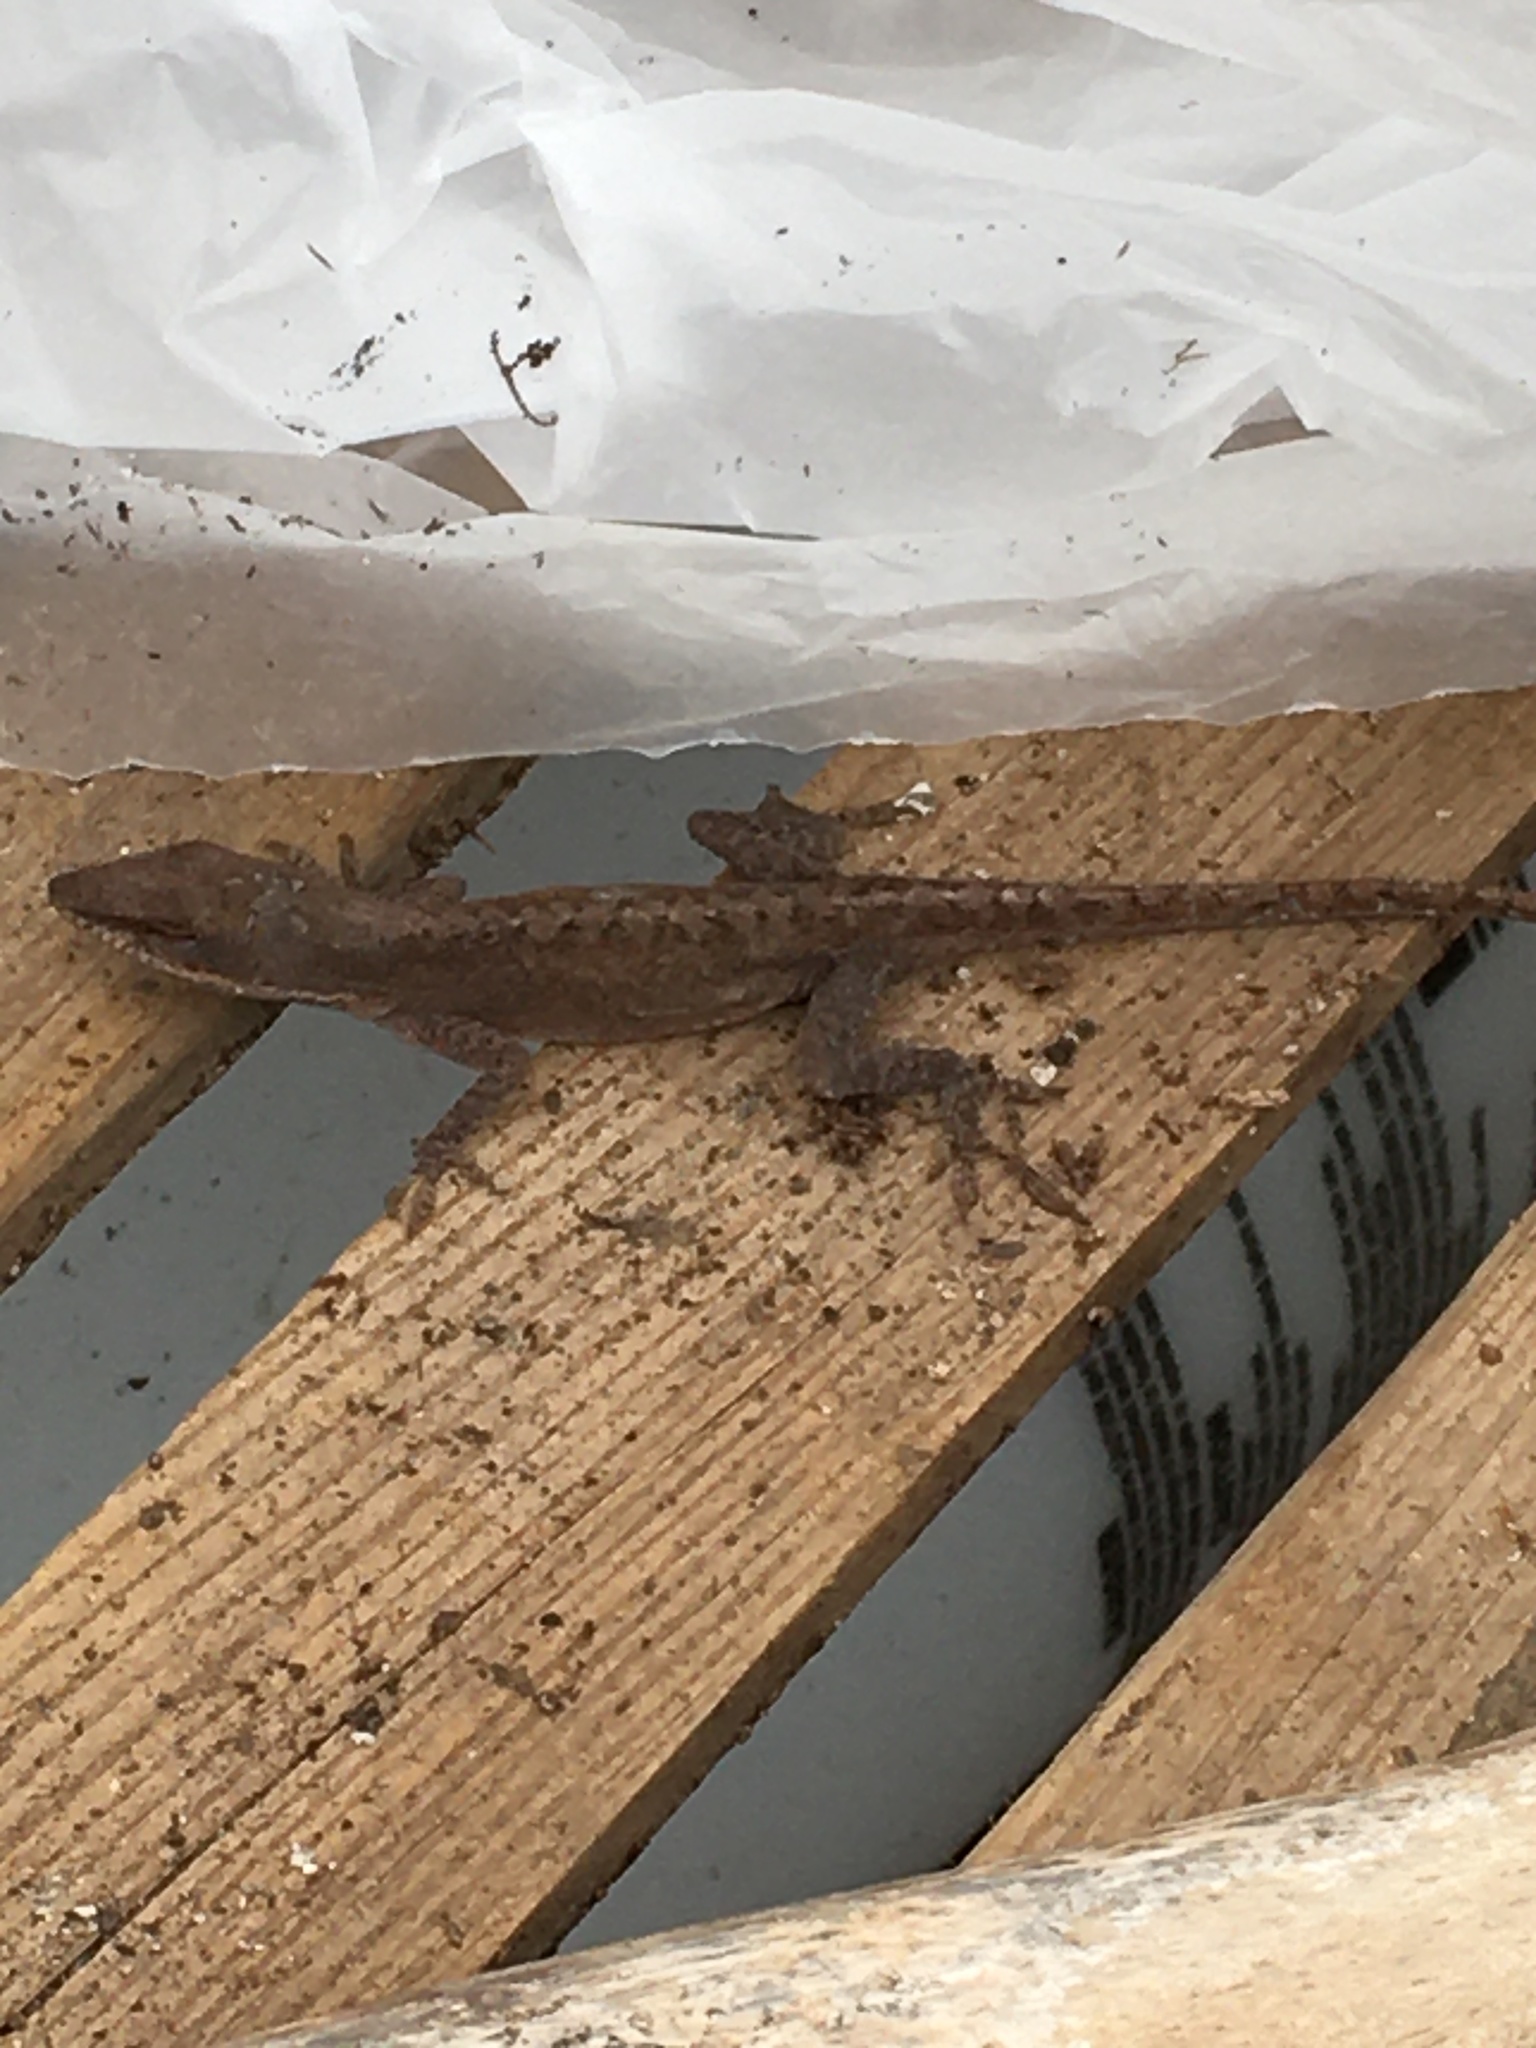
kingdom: Animalia
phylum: Chordata
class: Squamata
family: Dactyloidae
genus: Anolis
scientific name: Anolis carolinensis
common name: Green anole
